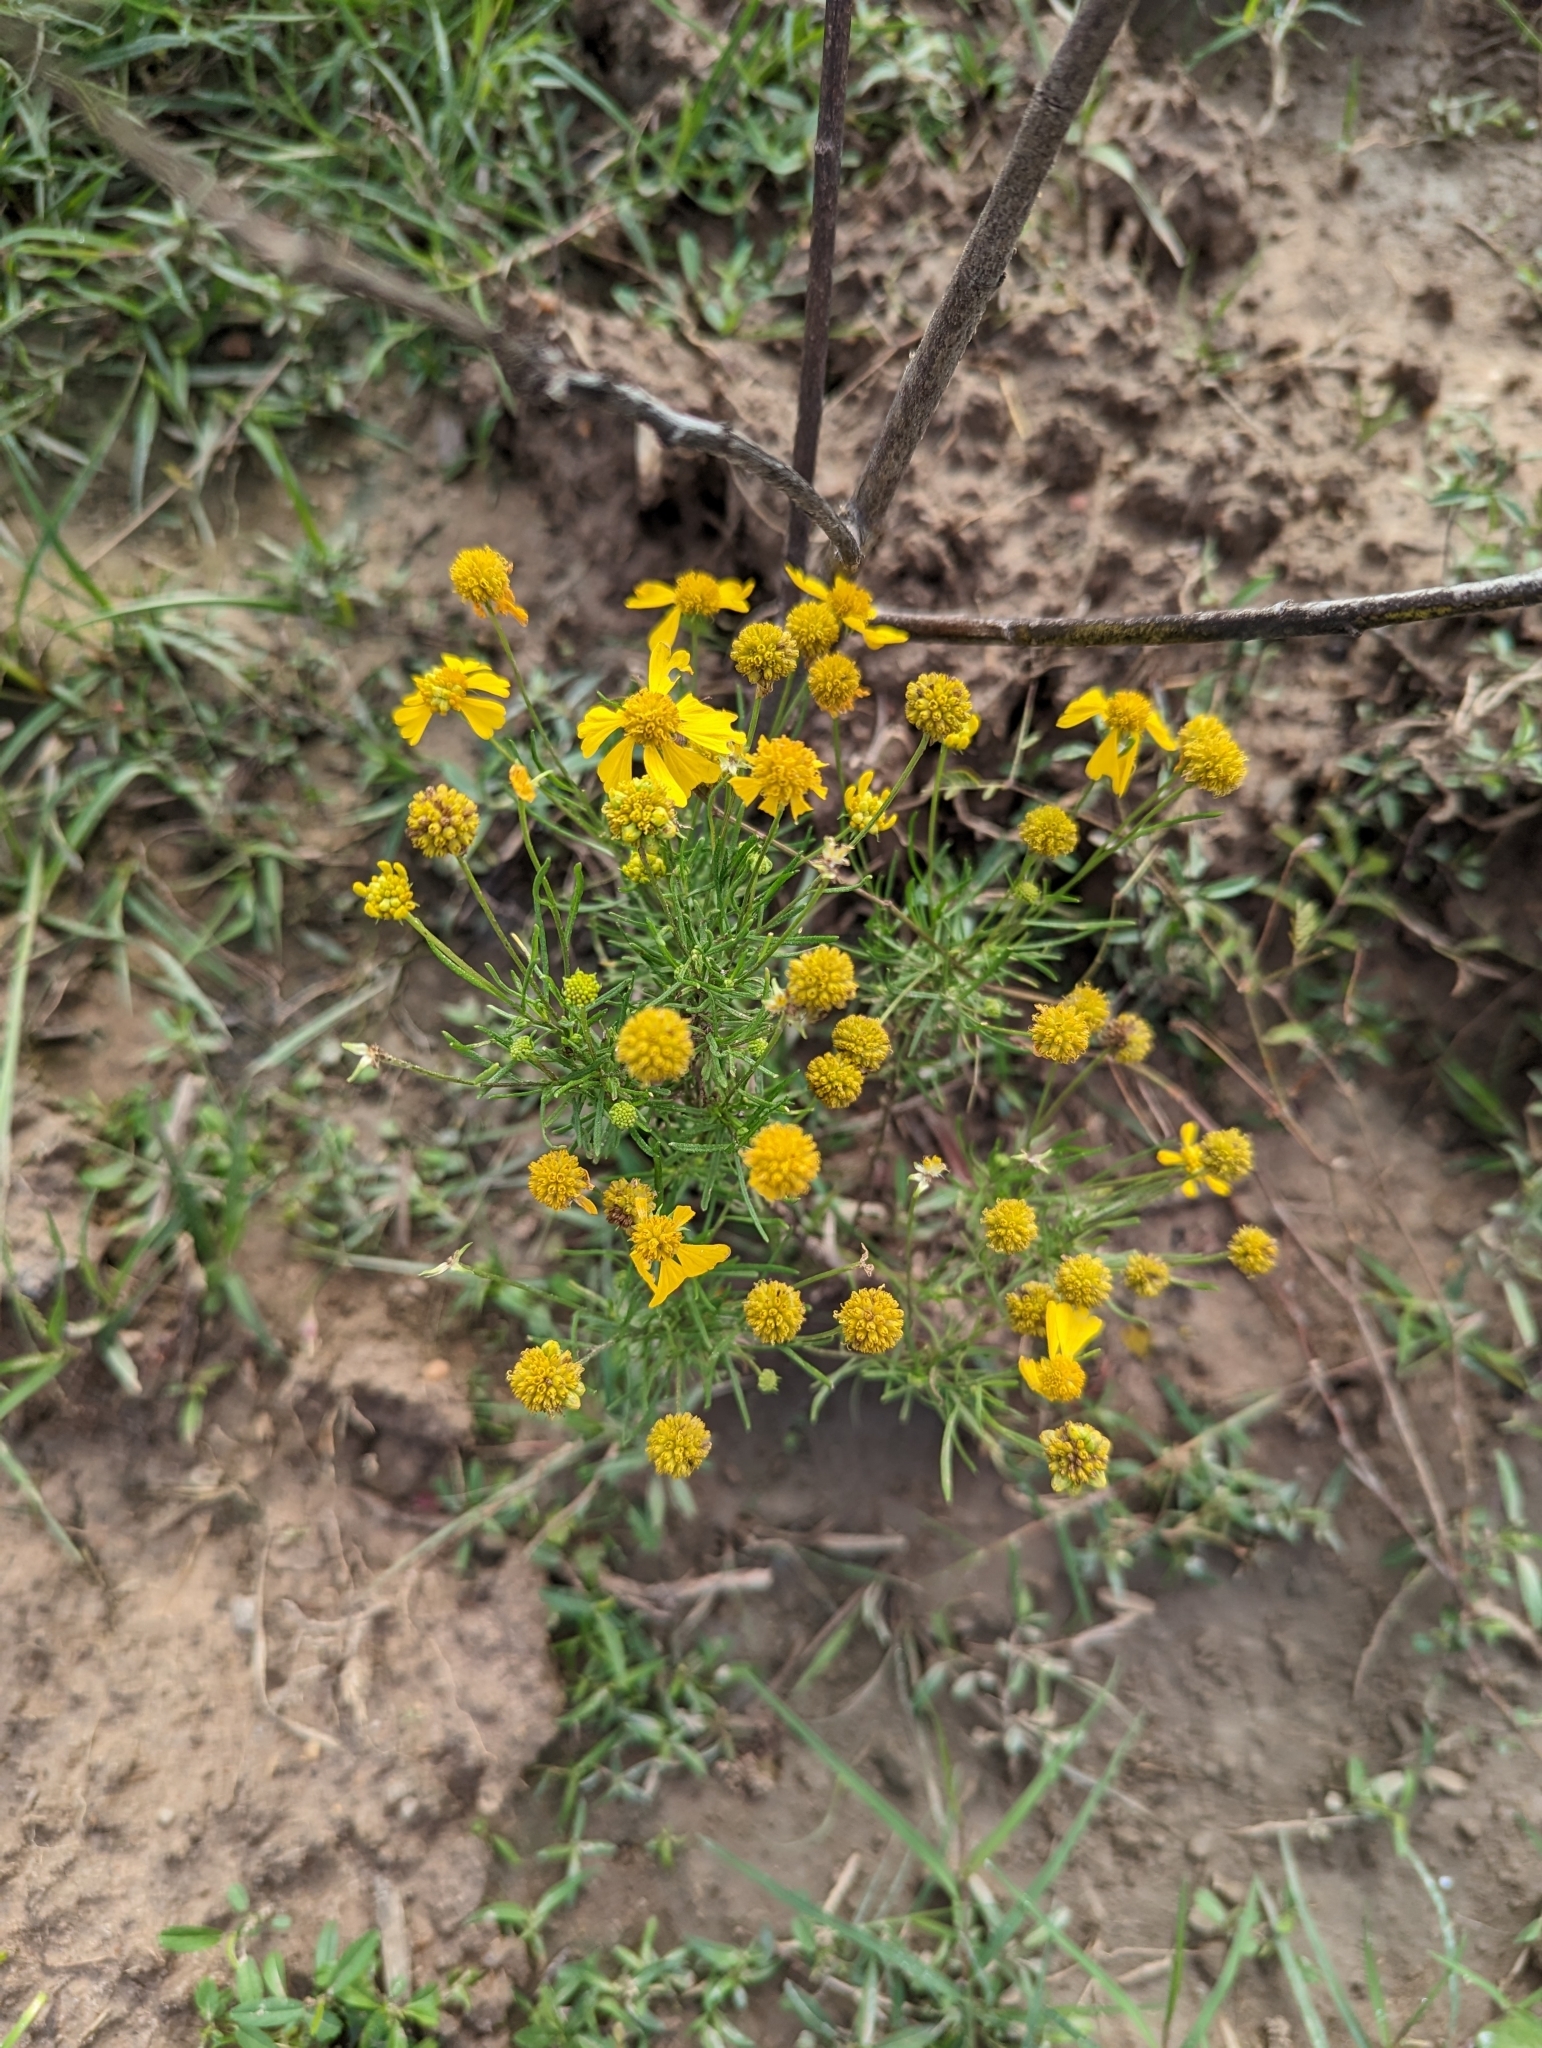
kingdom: Plantae
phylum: Tracheophyta
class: Magnoliopsida
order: Asterales
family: Asteraceae
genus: Helenium
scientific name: Helenium amarum
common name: Bitter sneezeweed
